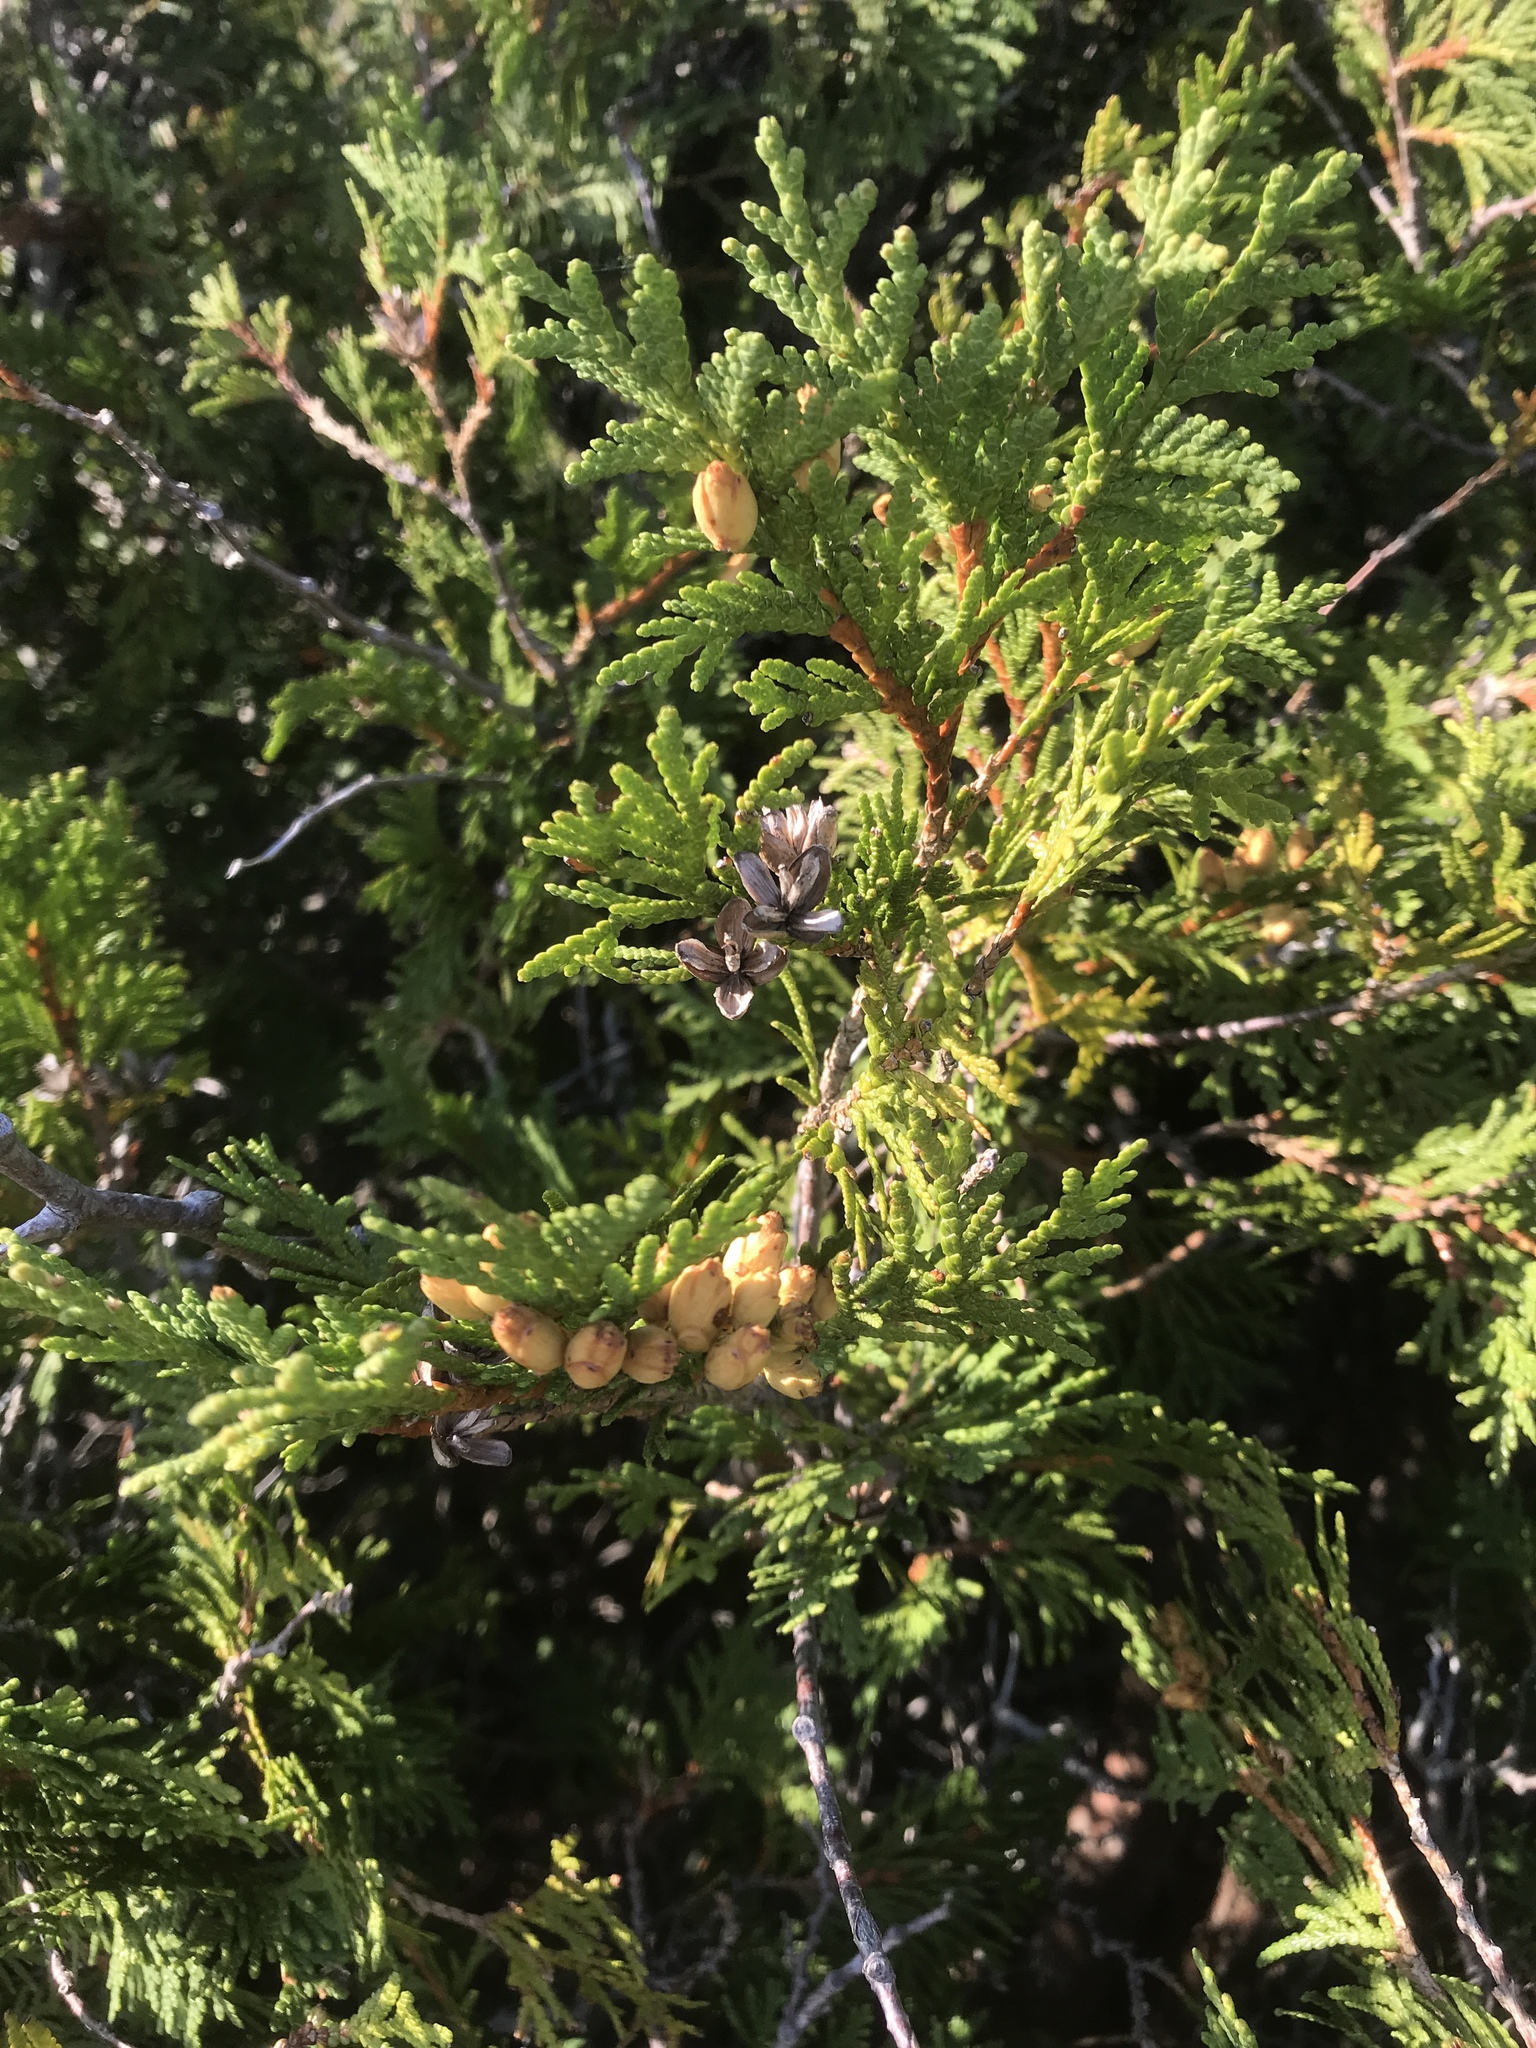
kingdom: Plantae
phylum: Tracheophyta
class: Pinopsida
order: Pinales
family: Cupressaceae
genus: Thuja
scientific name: Thuja occidentalis
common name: Northern white-cedar
